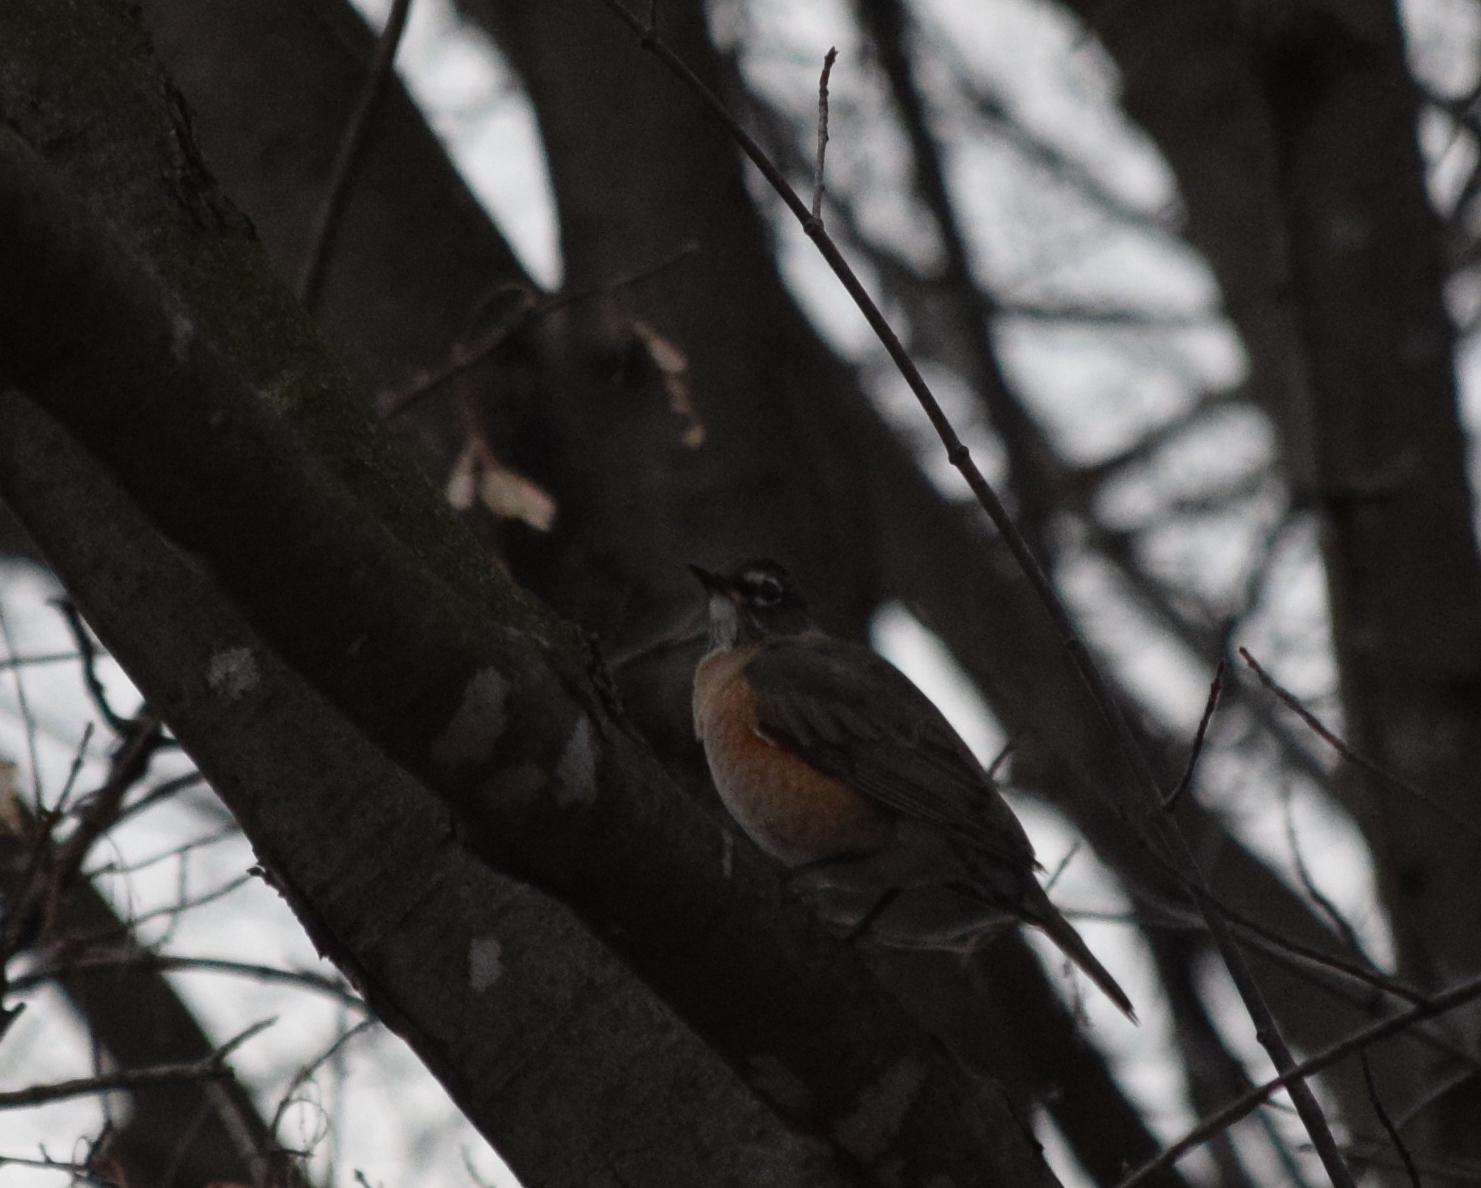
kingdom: Animalia
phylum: Chordata
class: Aves
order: Passeriformes
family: Turdidae
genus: Turdus
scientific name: Turdus migratorius
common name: American robin
